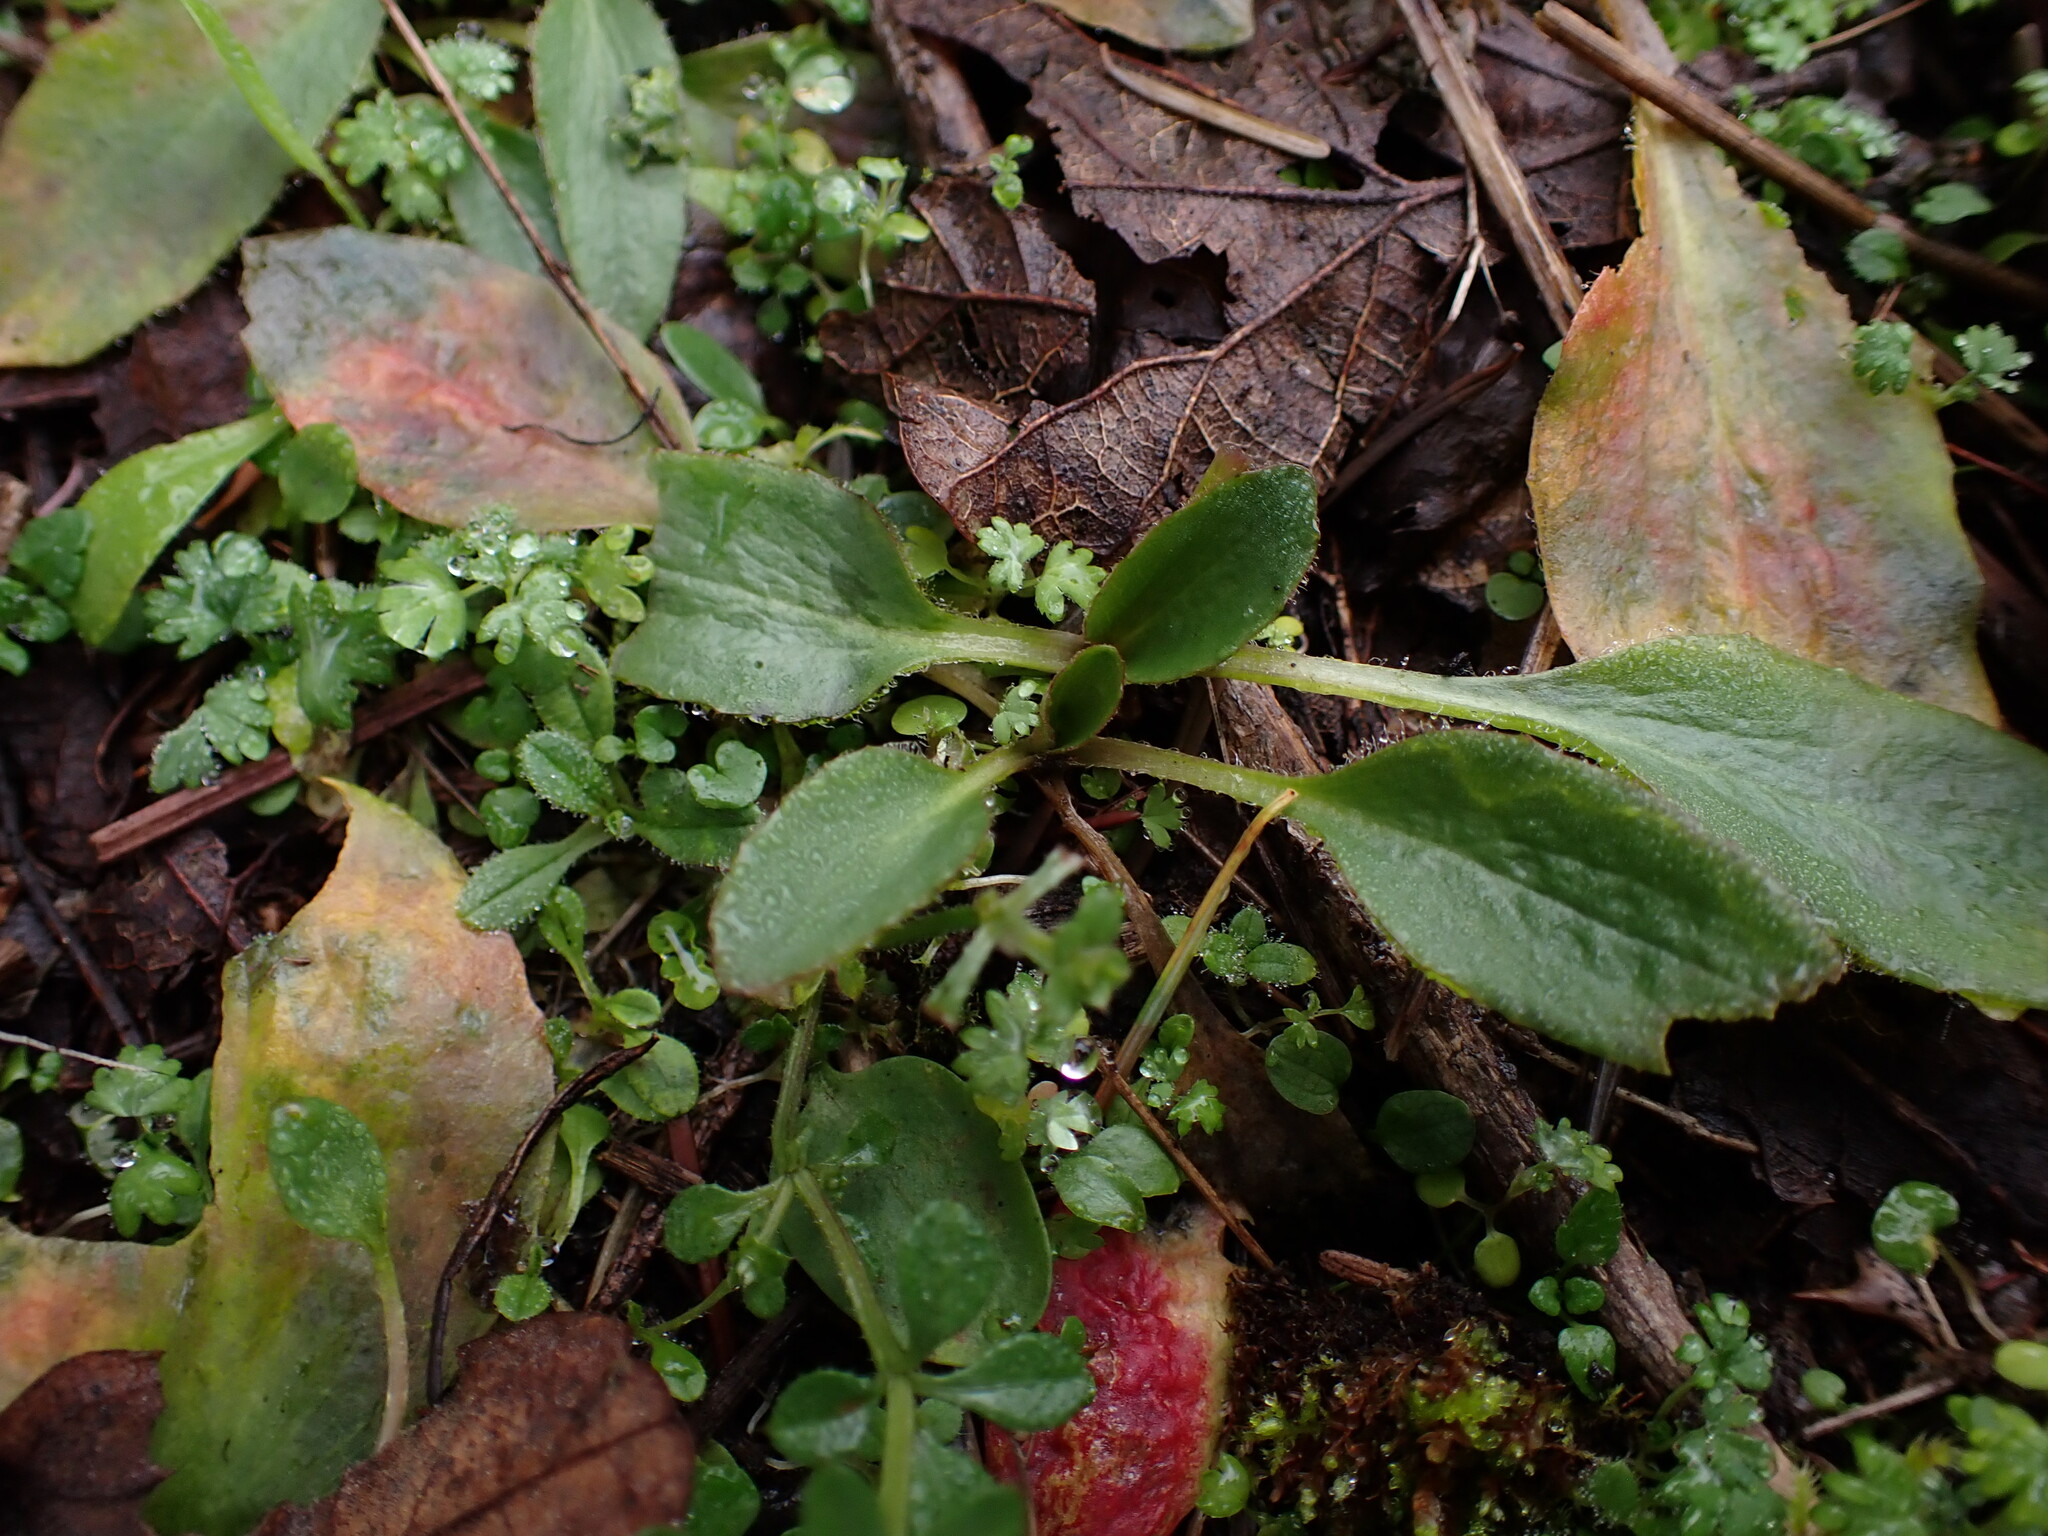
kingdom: Plantae
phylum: Tracheophyta
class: Magnoliopsida
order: Saxifragales
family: Saxifragaceae
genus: Micranthes
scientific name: Micranthes integrifolia
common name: Wholeleaf saxifrage
